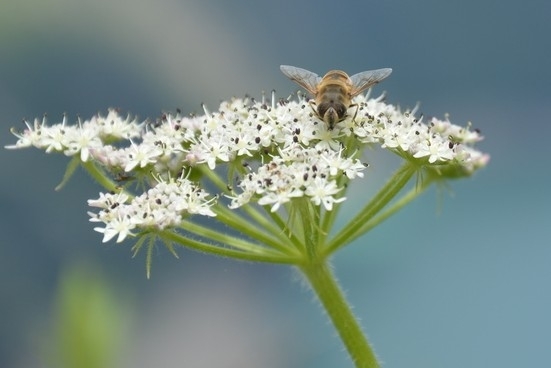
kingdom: Animalia
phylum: Arthropoda
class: Insecta
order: Diptera
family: Syrphidae
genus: Eristalis
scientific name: Eristalis tenax
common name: Drone fly
